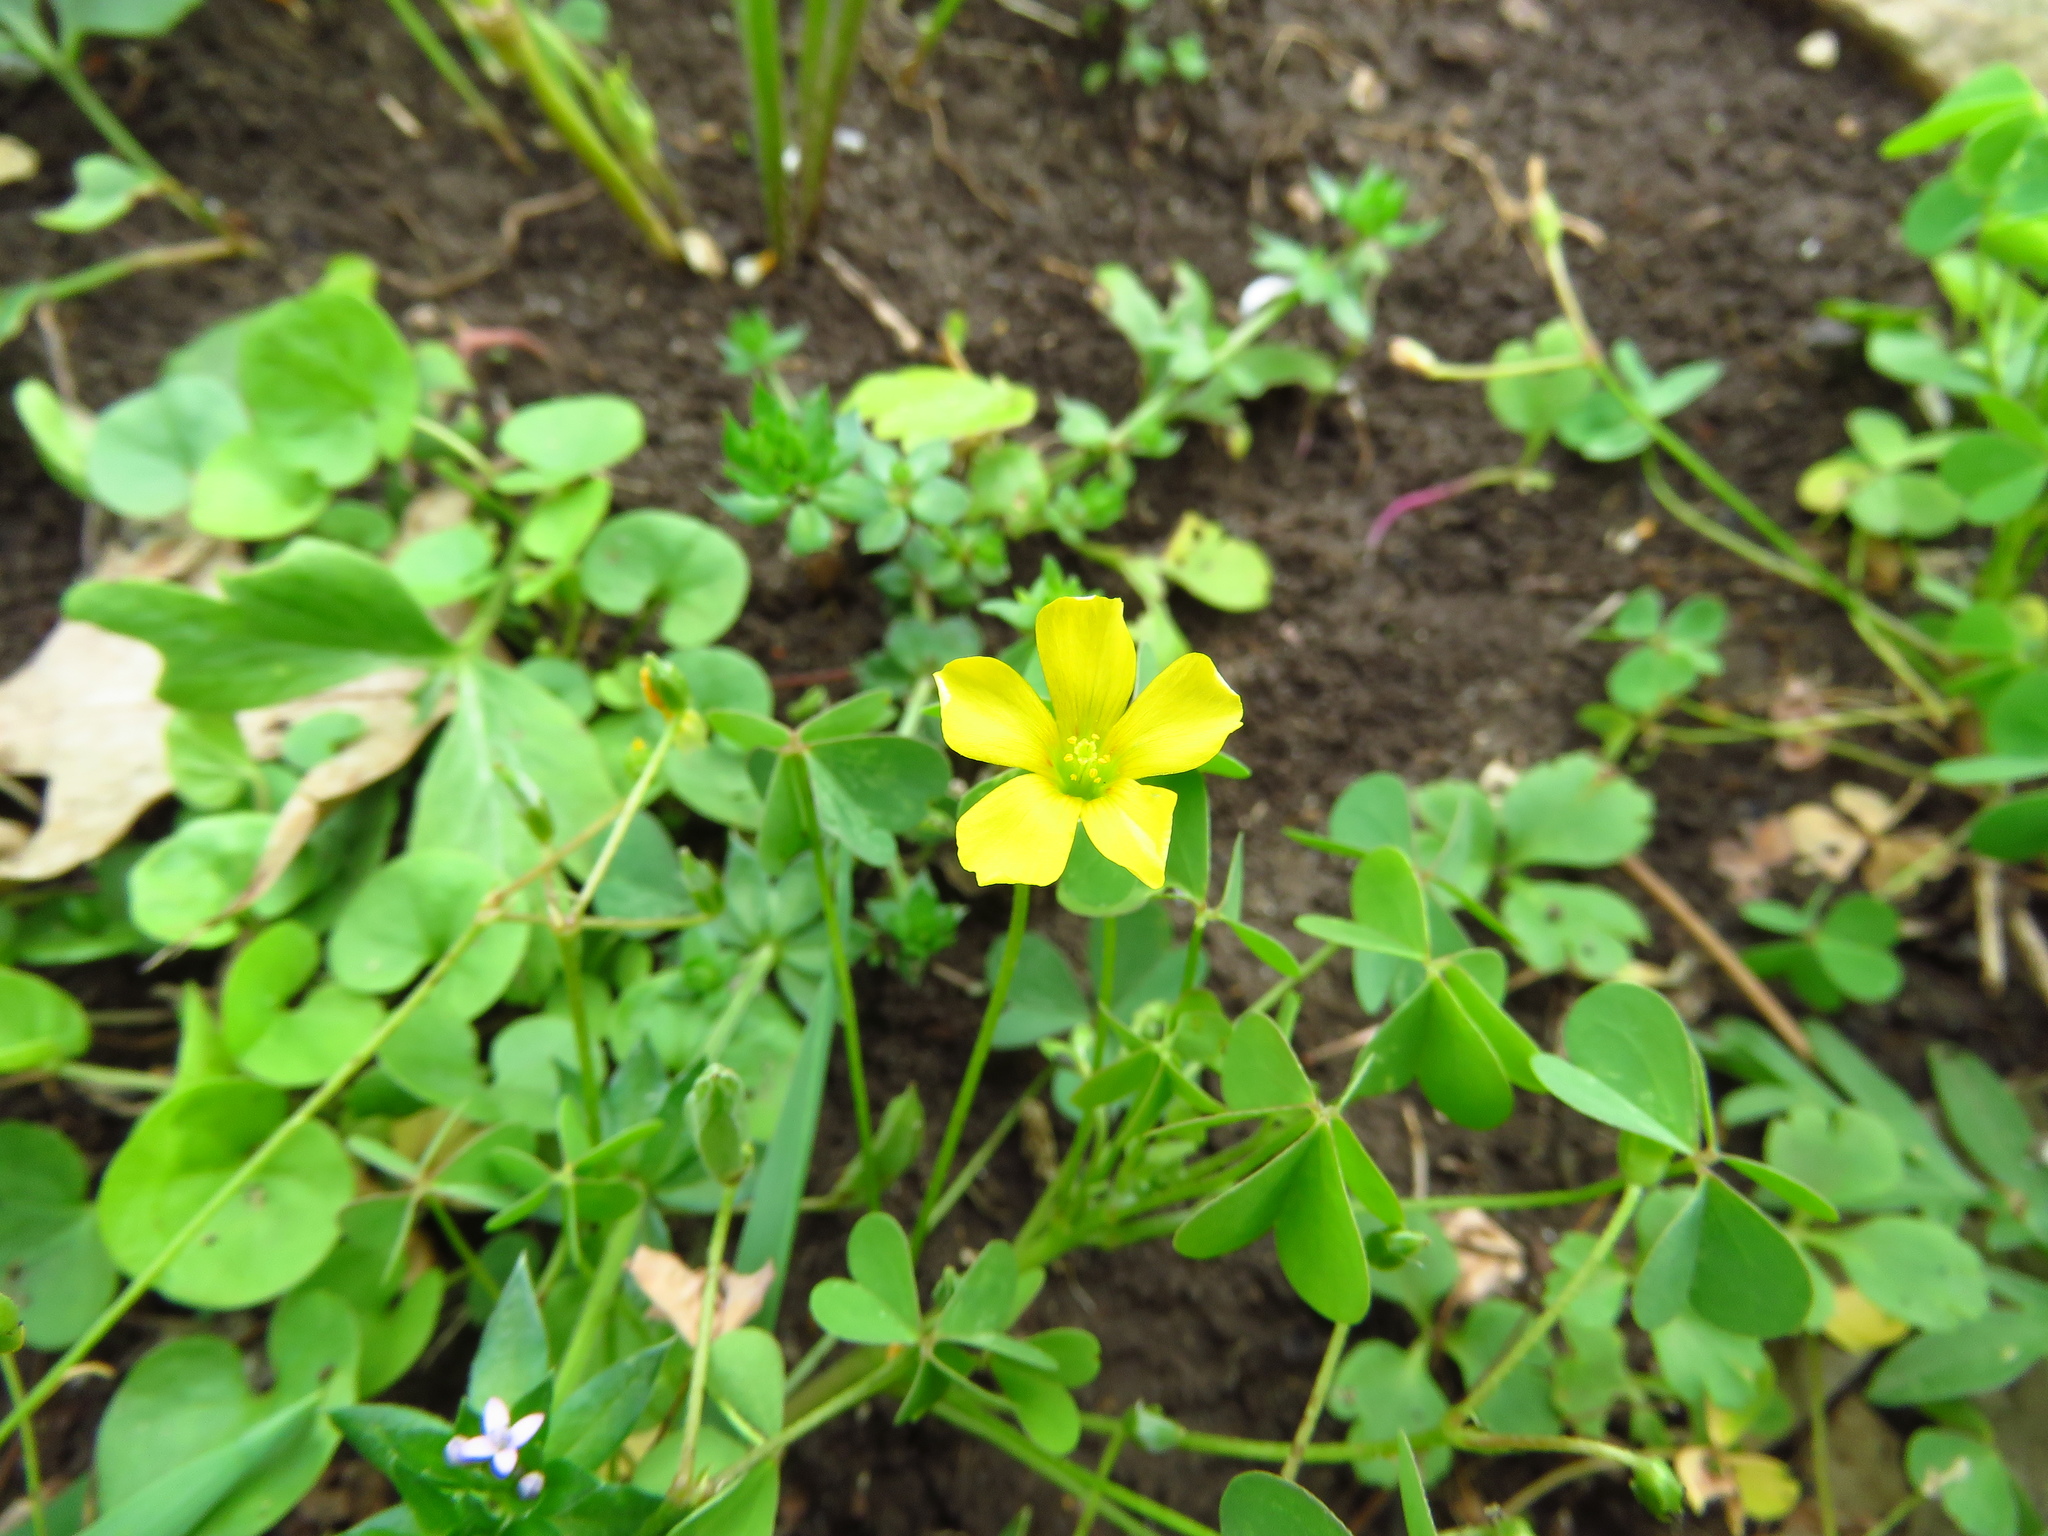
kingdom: Plantae
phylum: Tracheophyta
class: Magnoliopsida
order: Oxalidales
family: Oxalidaceae
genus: Oxalis
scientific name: Oxalis dillenii
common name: Sussex yellow-sorrel
